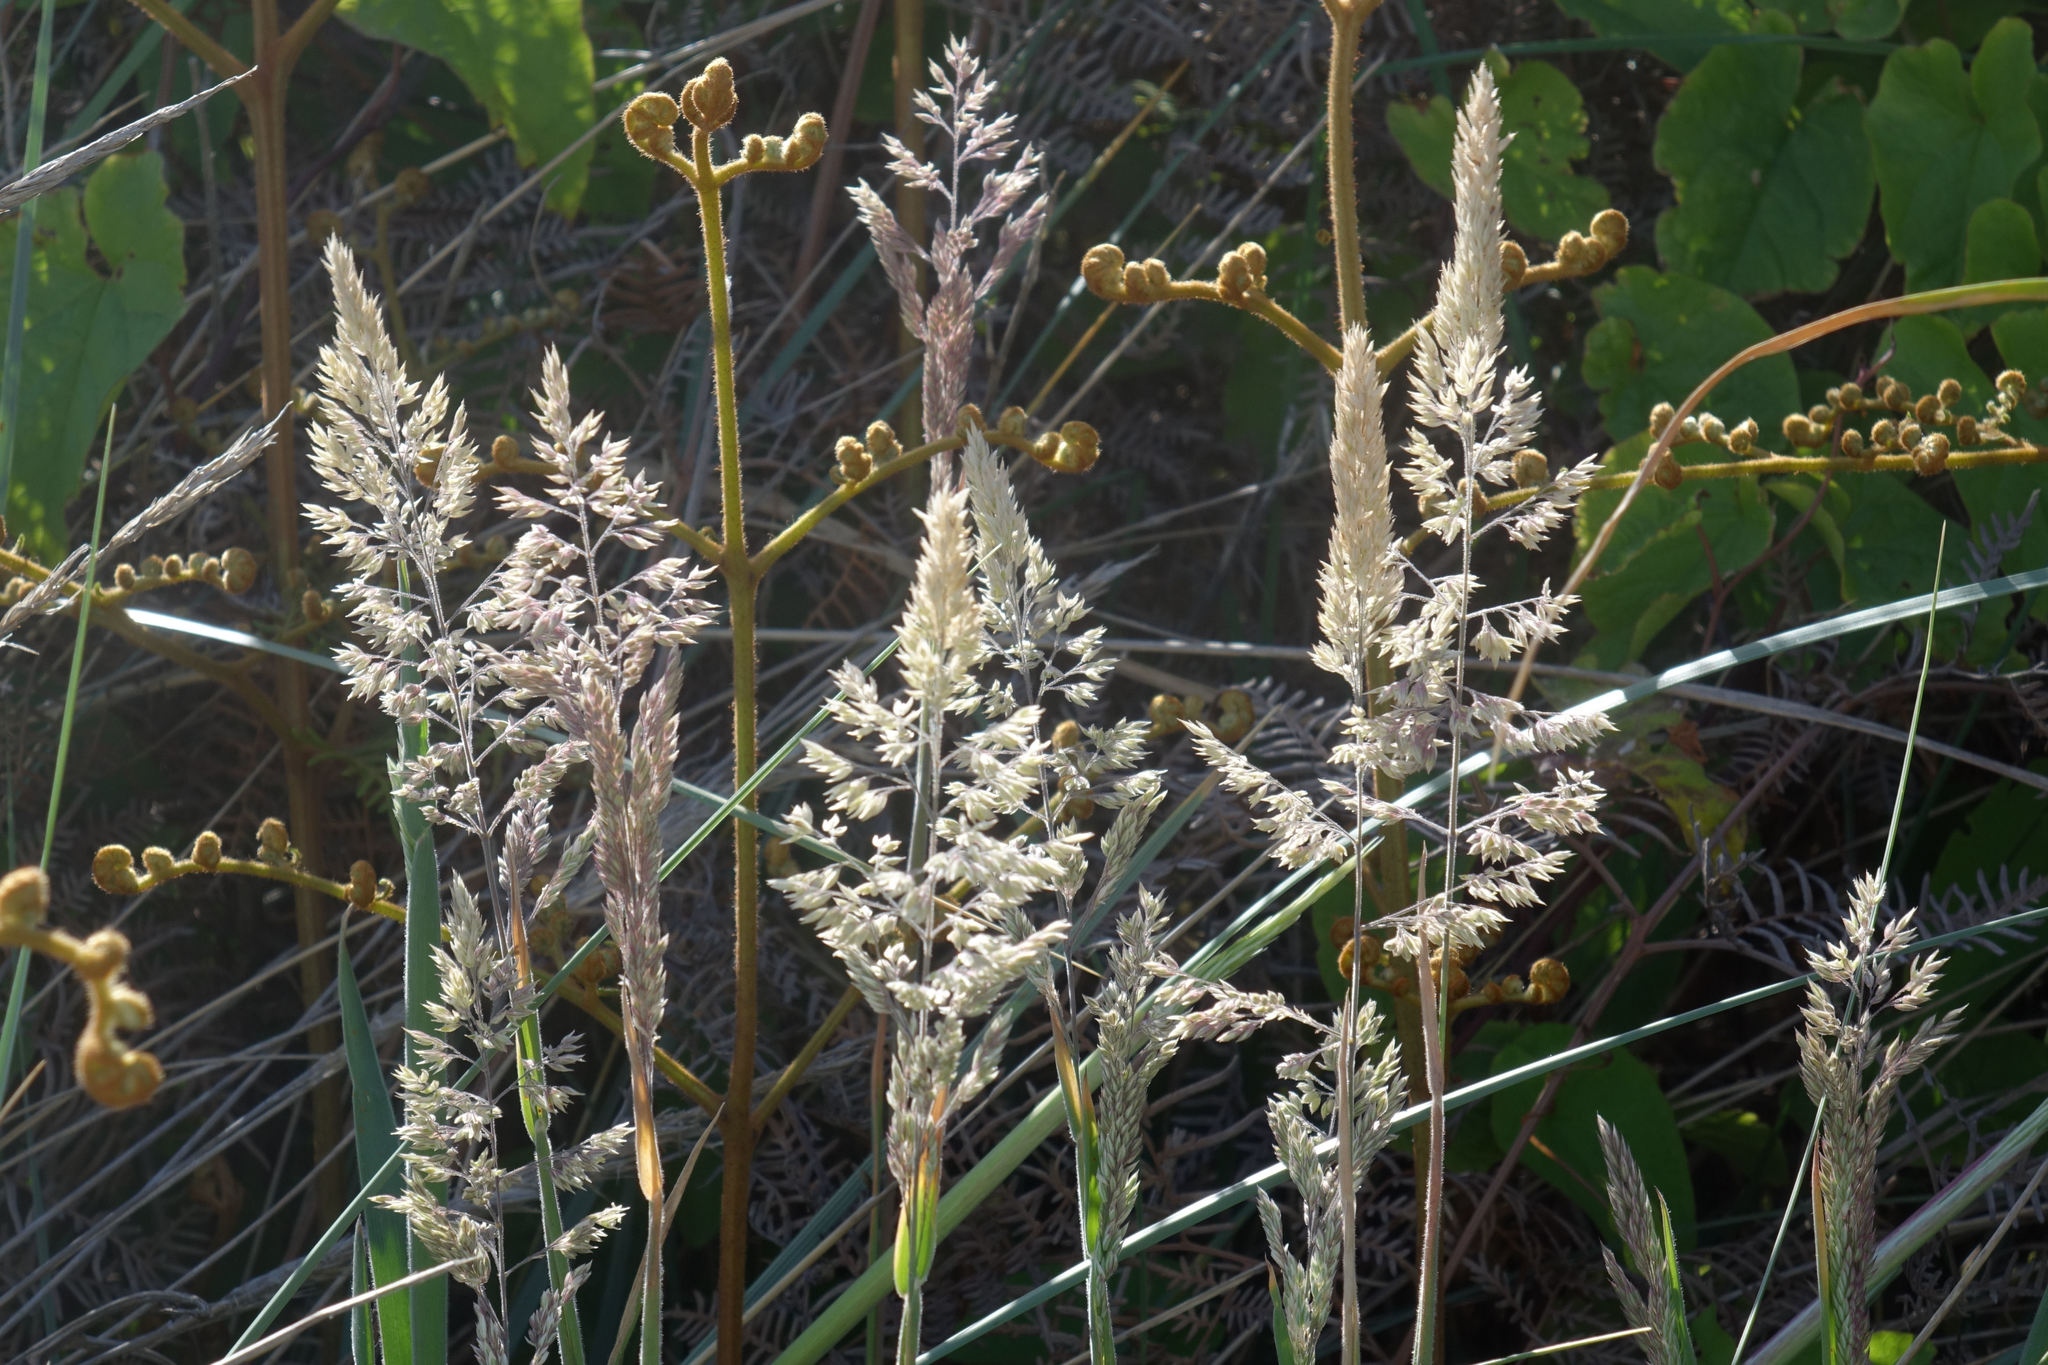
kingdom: Plantae
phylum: Tracheophyta
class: Liliopsida
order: Poales
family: Poaceae
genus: Holcus
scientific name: Holcus lanatus
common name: Yorkshire-fog
